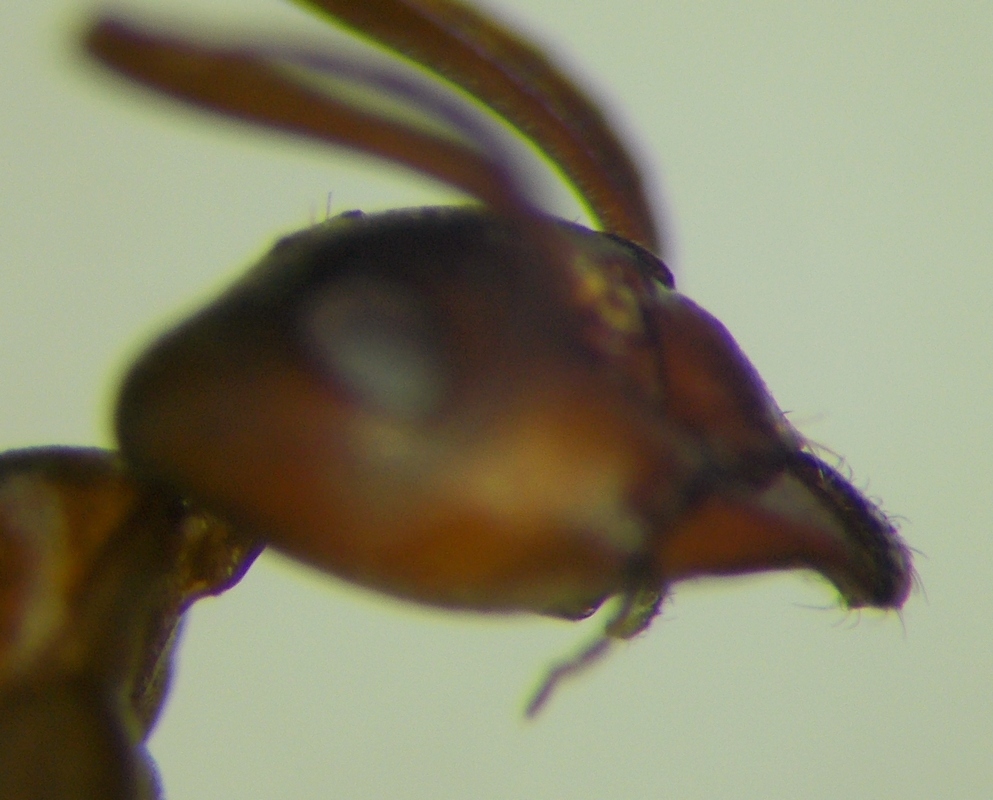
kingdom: Animalia
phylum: Arthropoda
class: Insecta
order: Hymenoptera
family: Formicidae
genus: Formica
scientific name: Formica pressilabris
